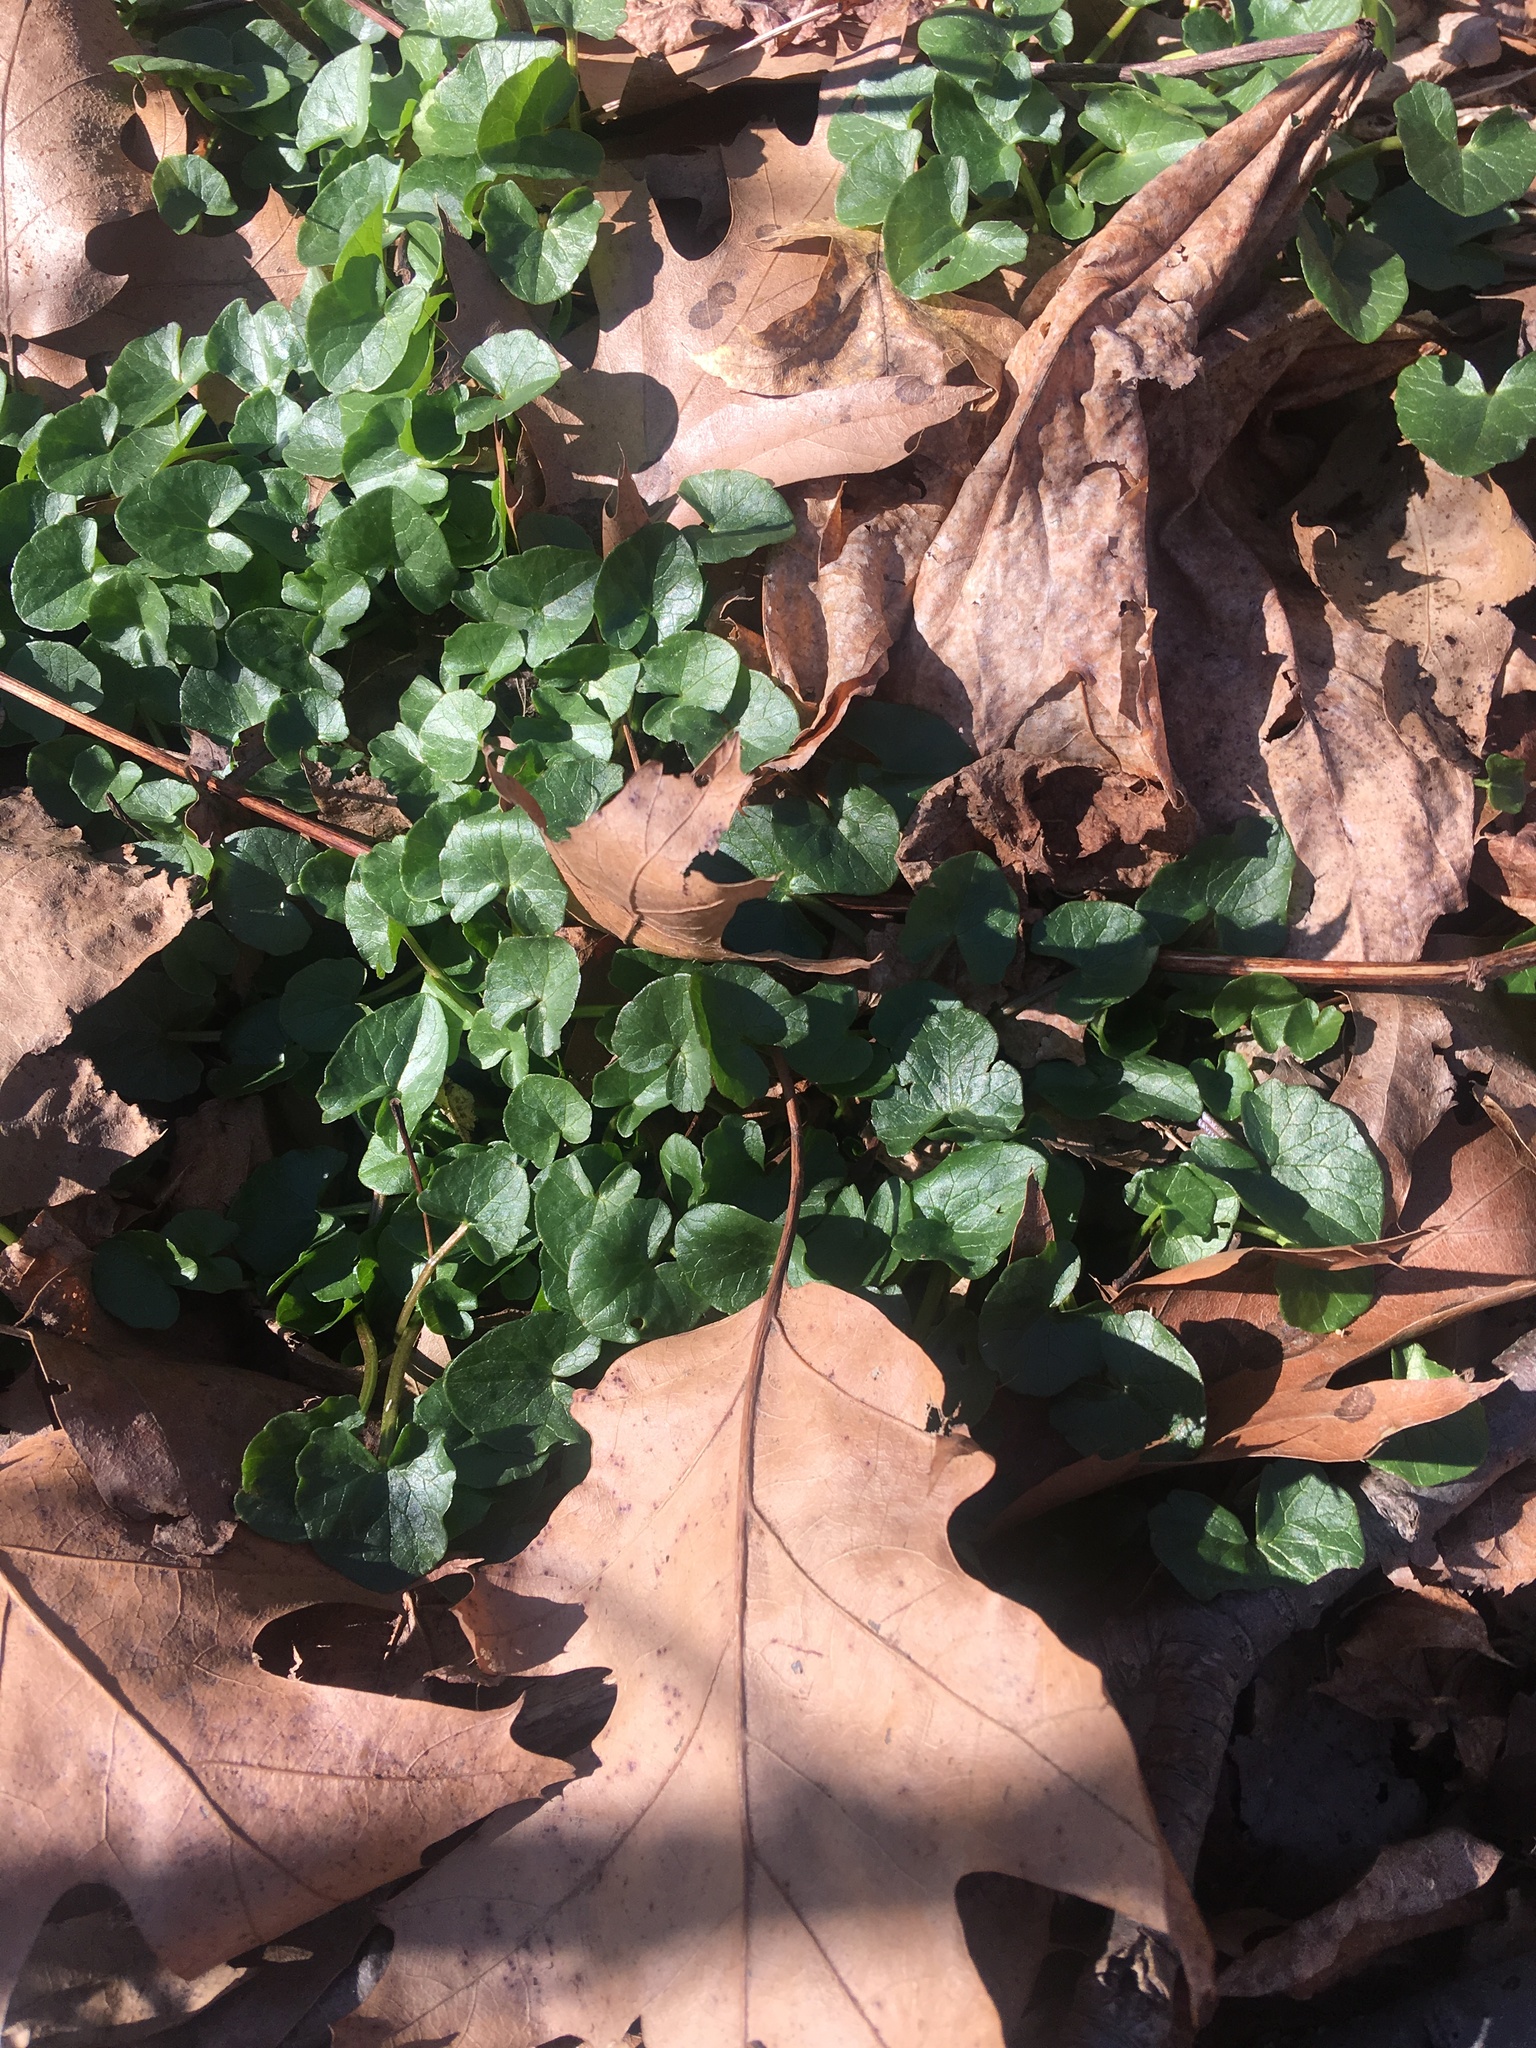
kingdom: Plantae
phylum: Tracheophyta
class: Magnoliopsida
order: Ranunculales
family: Ranunculaceae
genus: Ficaria
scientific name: Ficaria verna
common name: Lesser celandine
